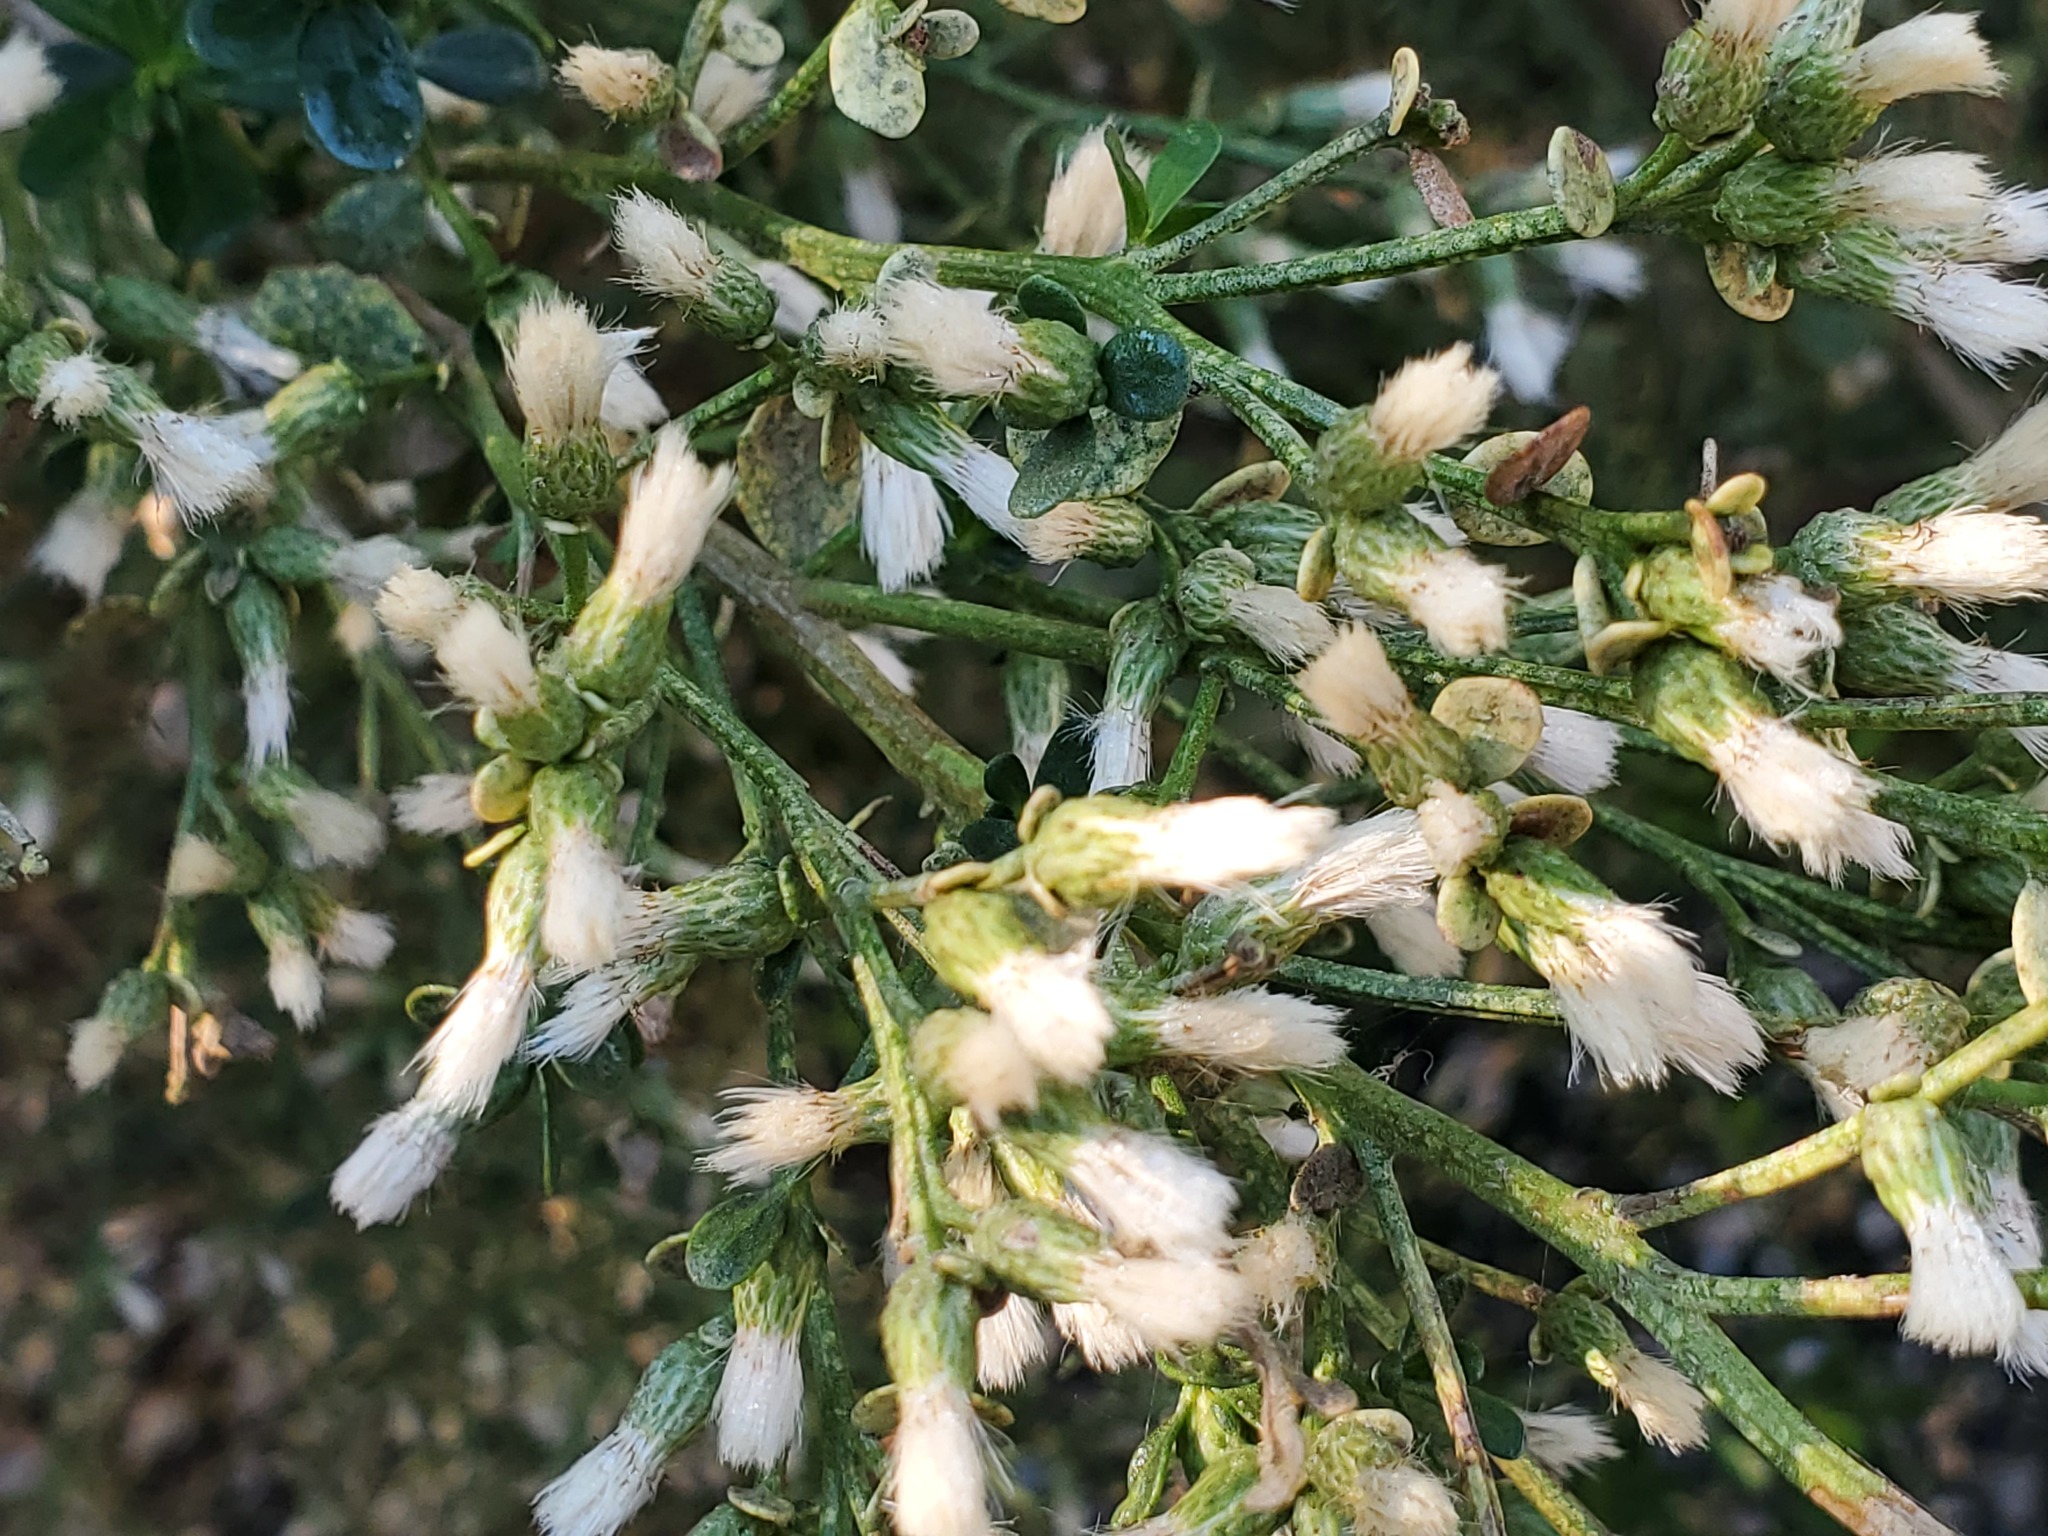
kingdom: Plantae
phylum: Tracheophyta
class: Magnoliopsida
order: Asterales
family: Asteraceae
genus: Baccharis
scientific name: Baccharis pilularis
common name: Coyotebrush
